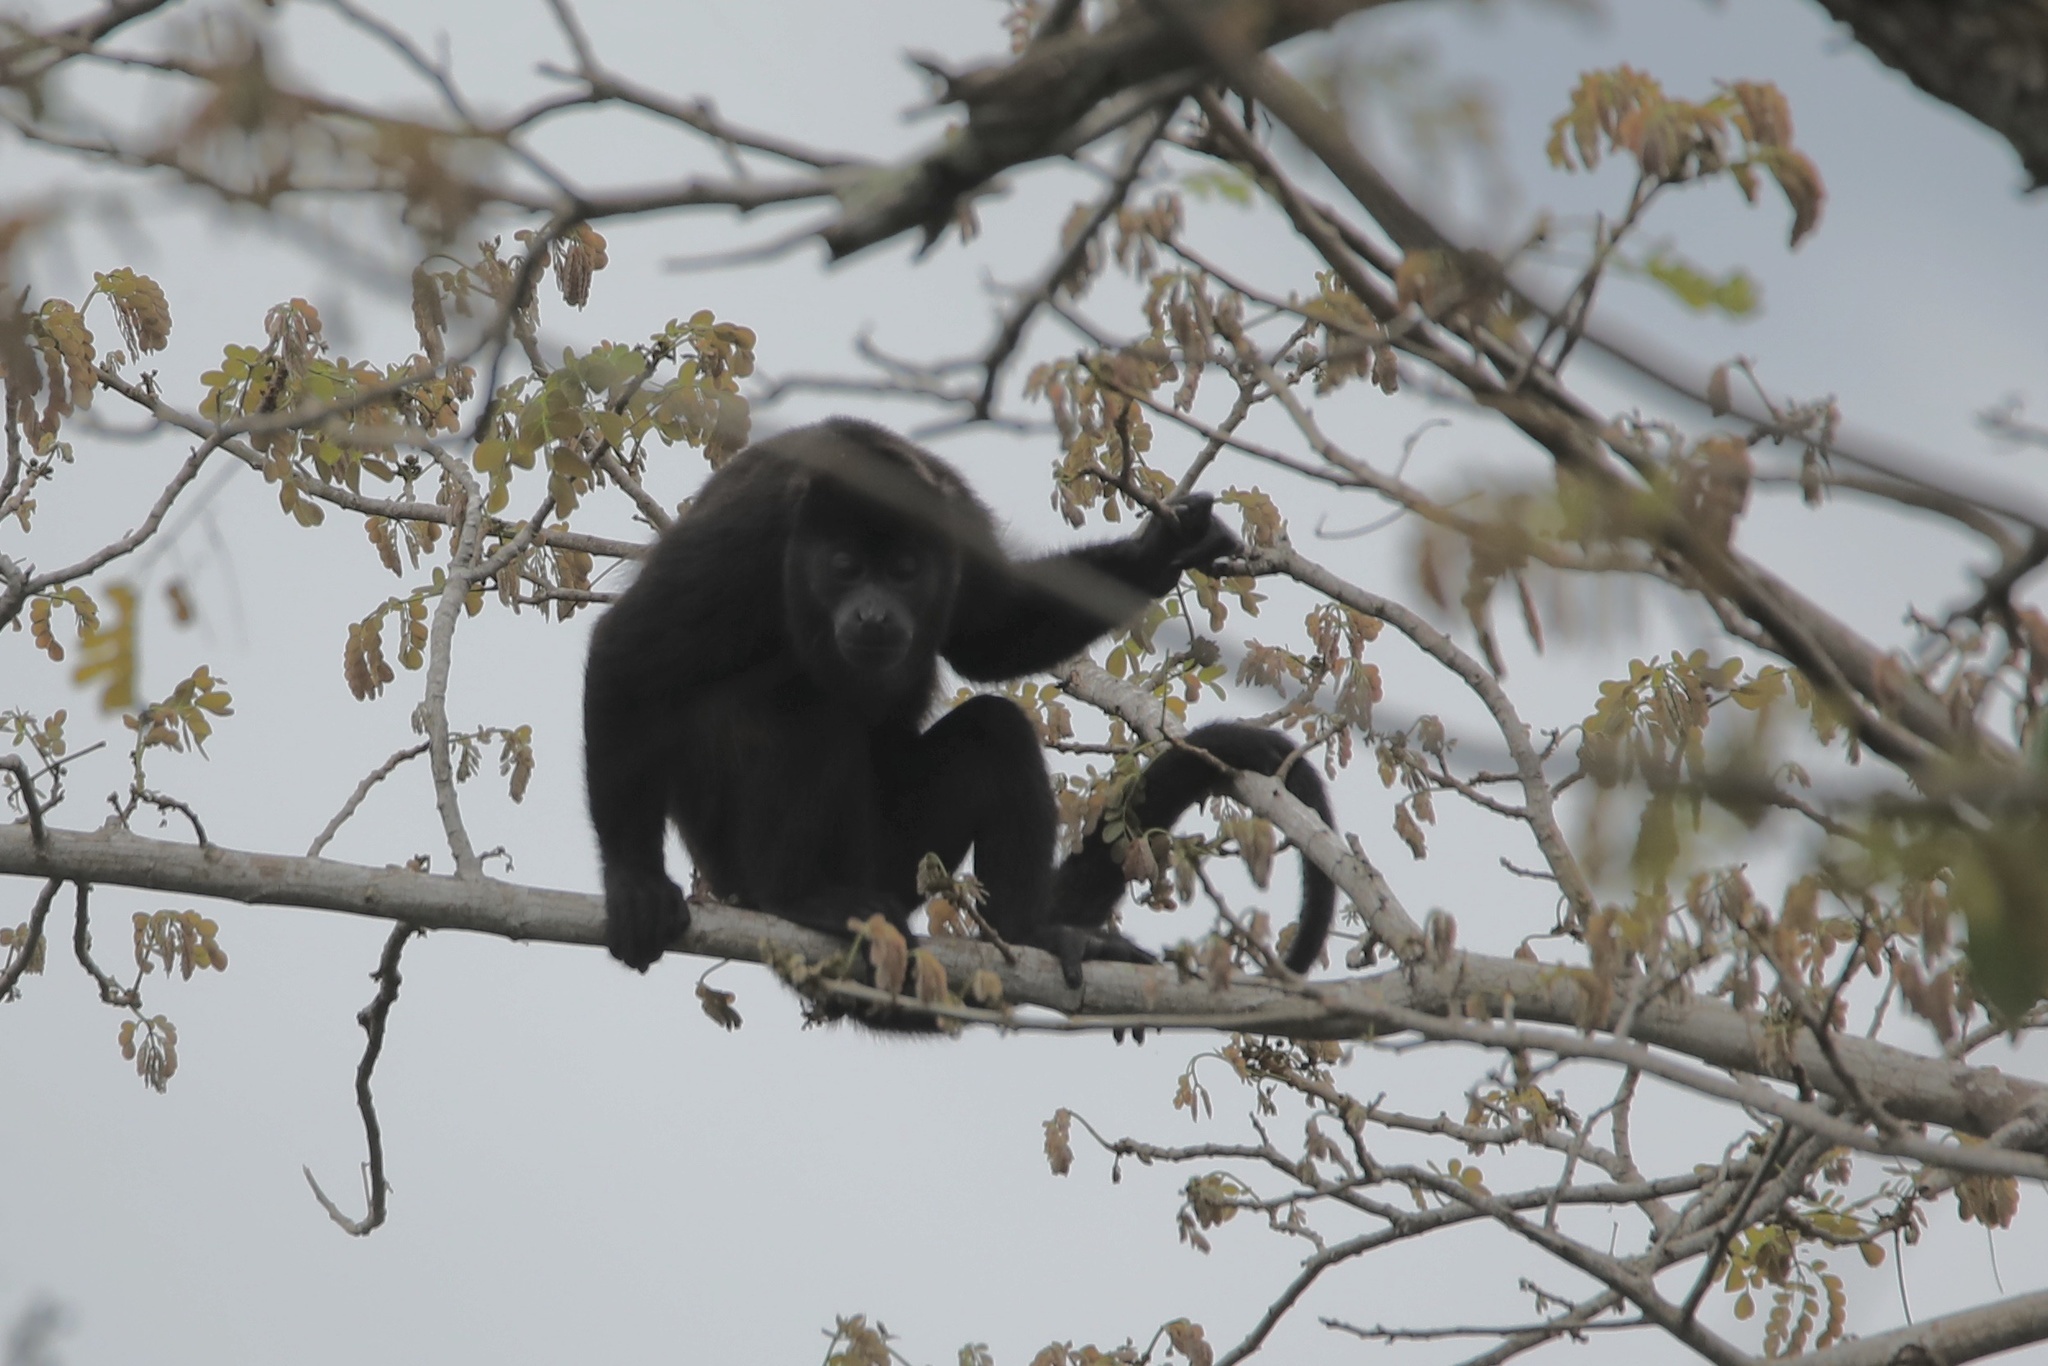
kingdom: Animalia
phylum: Chordata
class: Mammalia
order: Primates
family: Atelidae
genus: Alouatta
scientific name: Alouatta palliata
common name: Mantled howler
